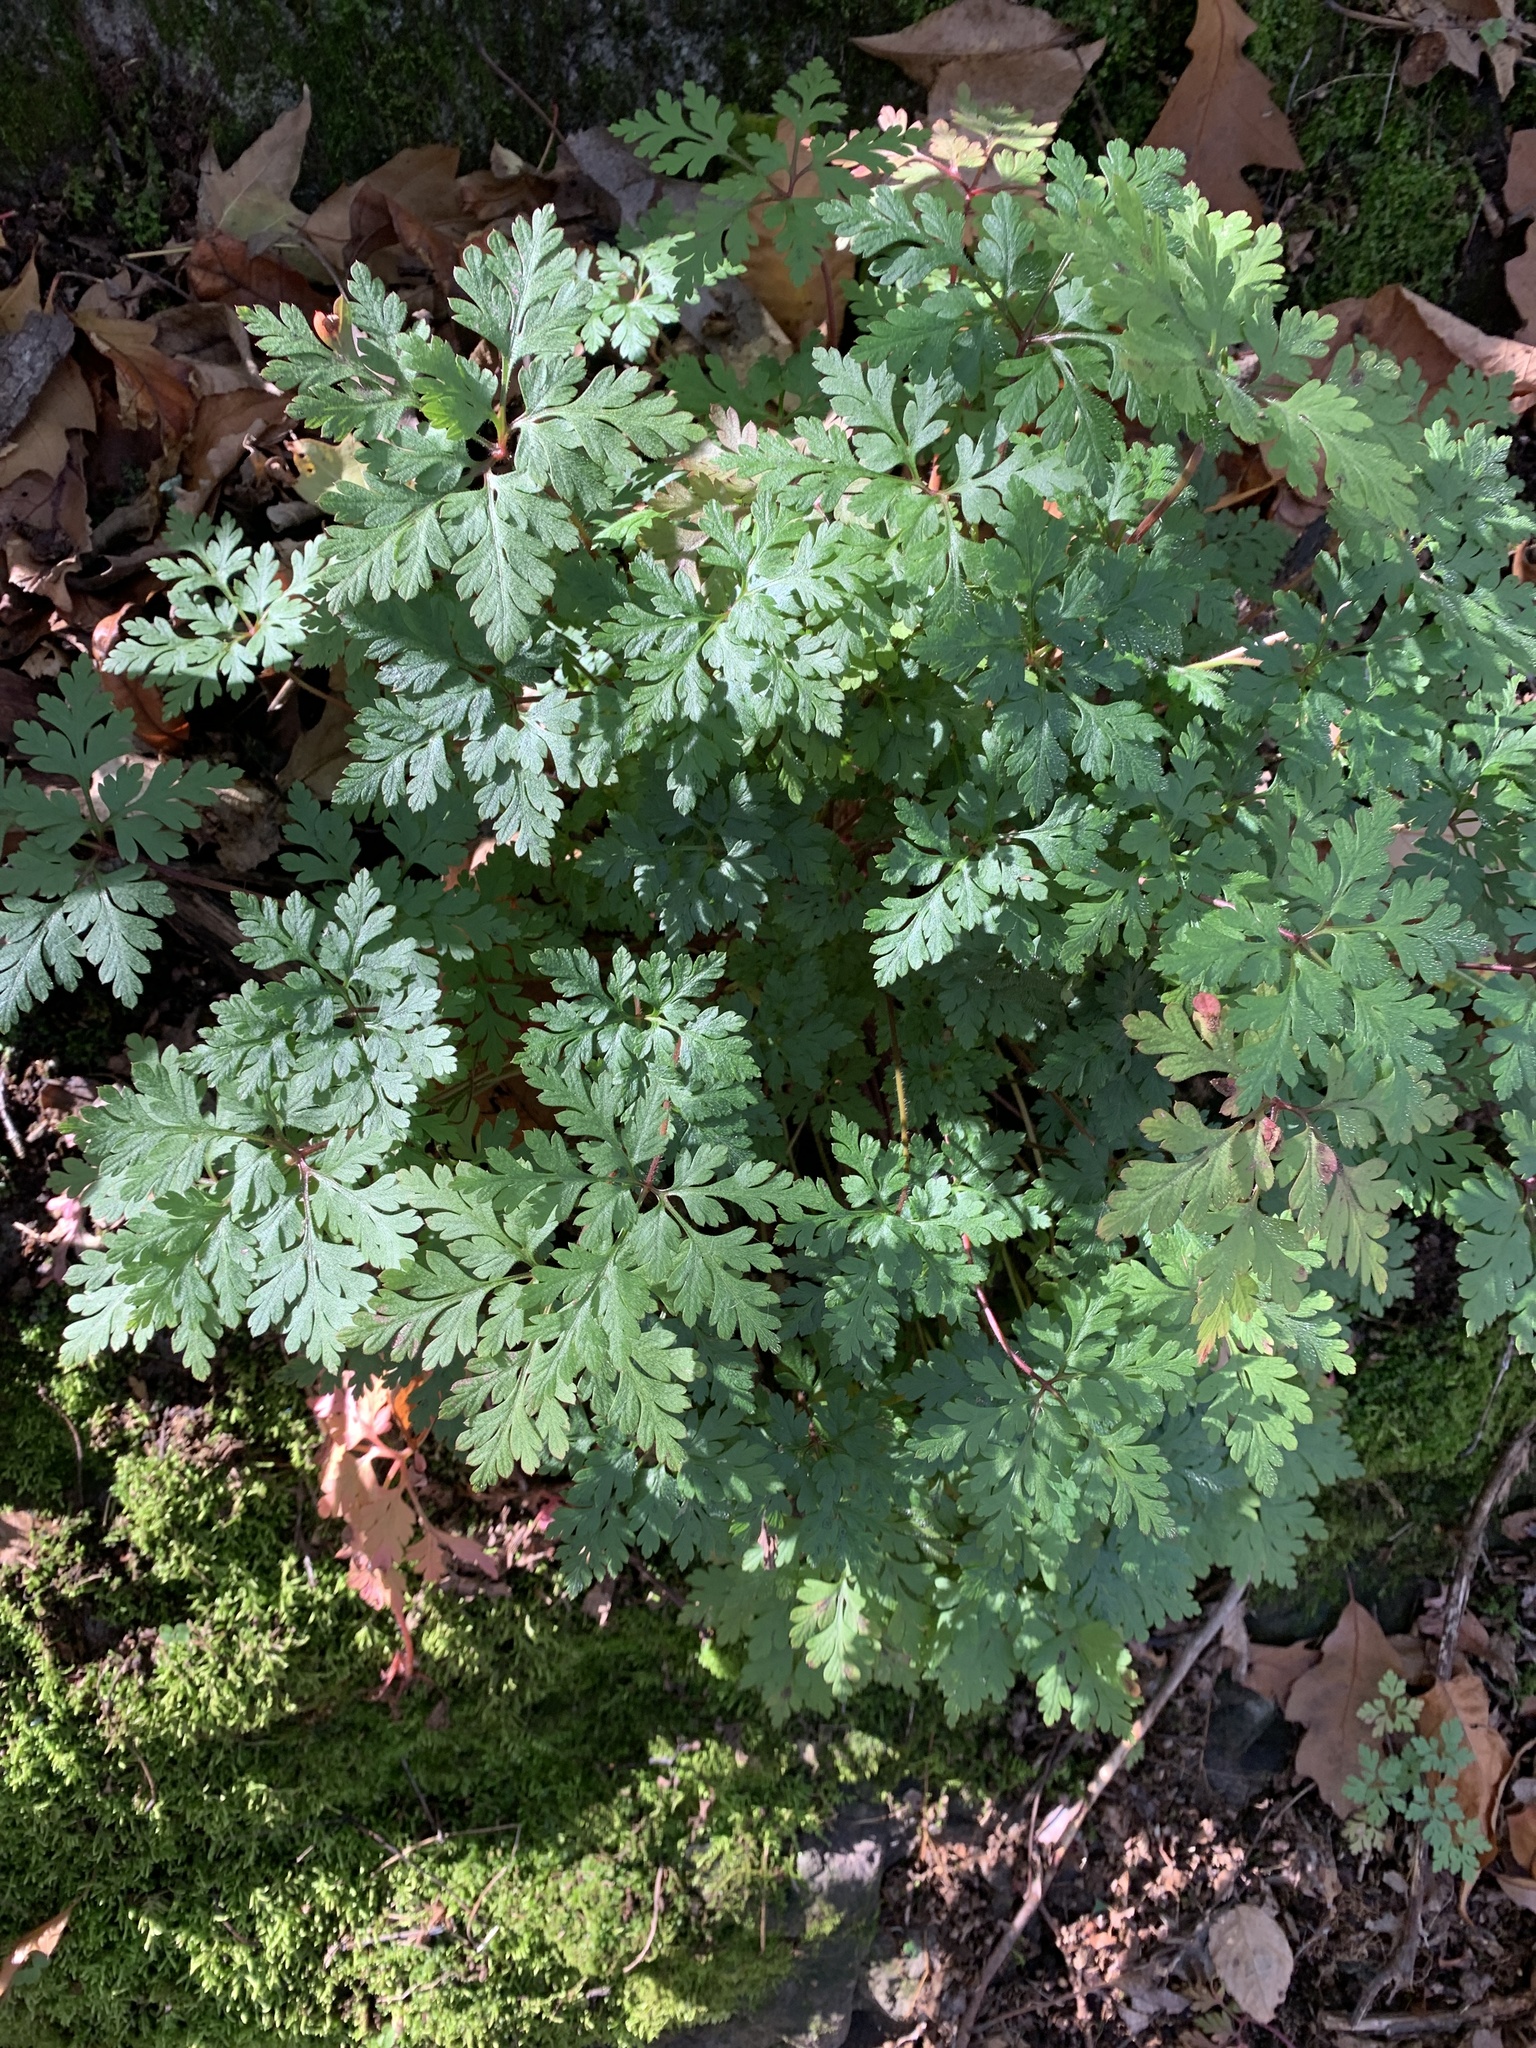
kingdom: Plantae
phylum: Tracheophyta
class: Magnoliopsida
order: Geraniales
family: Geraniaceae
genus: Geranium
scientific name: Geranium robertianum
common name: Herb-robert
